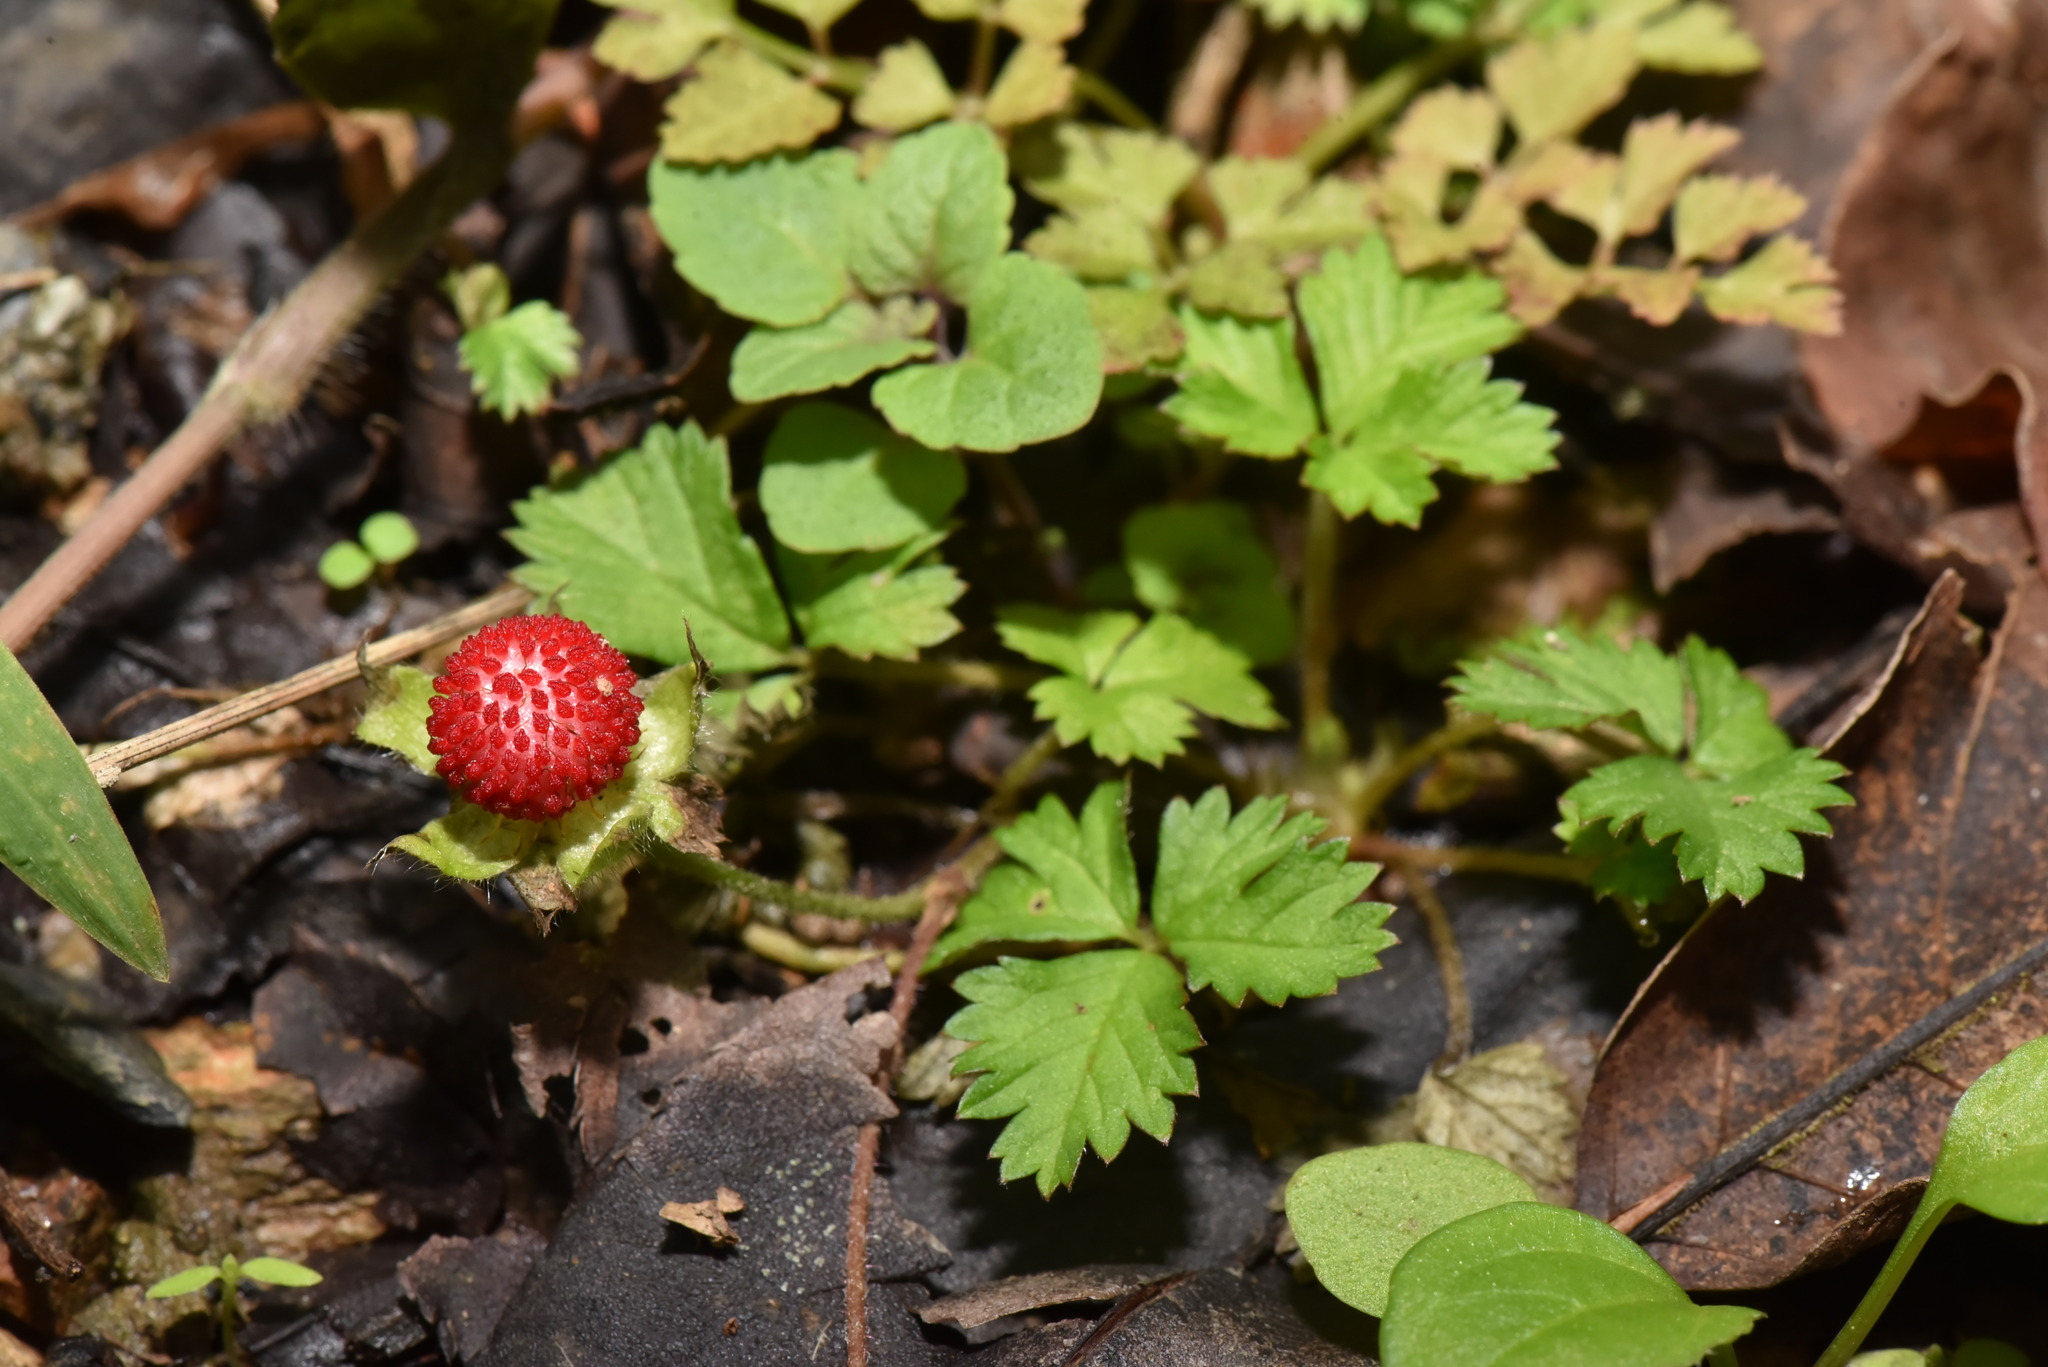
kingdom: Plantae
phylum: Tracheophyta
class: Magnoliopsida
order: Rosales
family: Rosaceae
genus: Potentilla
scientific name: Potentilla wallichiana
